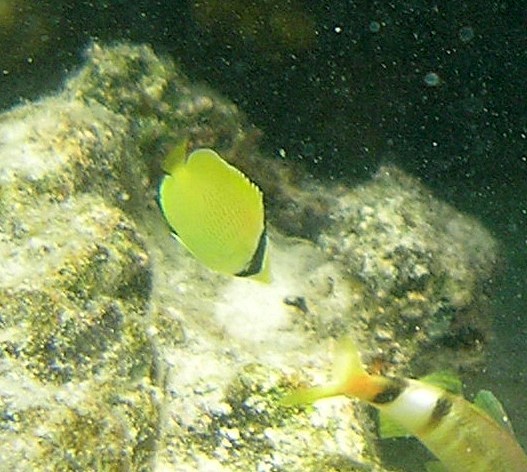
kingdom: Animalia
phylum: Chordata
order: Perciformes
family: Chaetodontidae
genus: Chaetodon
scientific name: Chaetodon citrinellus
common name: Speckled butterflyfish
